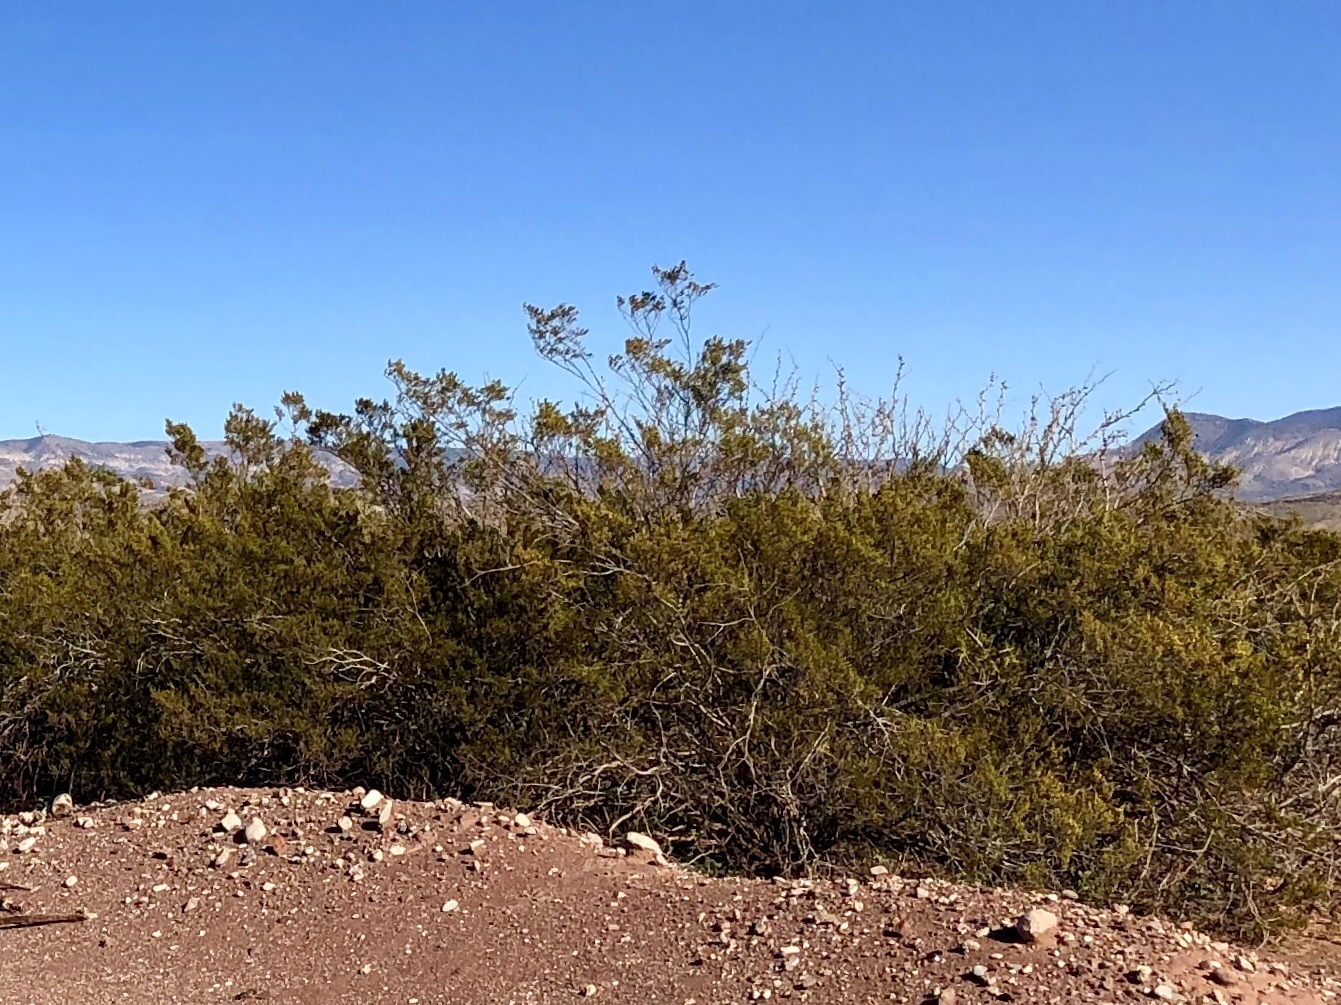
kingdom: Plantae
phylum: Tracheophyta
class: Magnoliopsida
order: Zygophyllales
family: Zygophyllaceae
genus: Larrea
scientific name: Larrea tridentata
